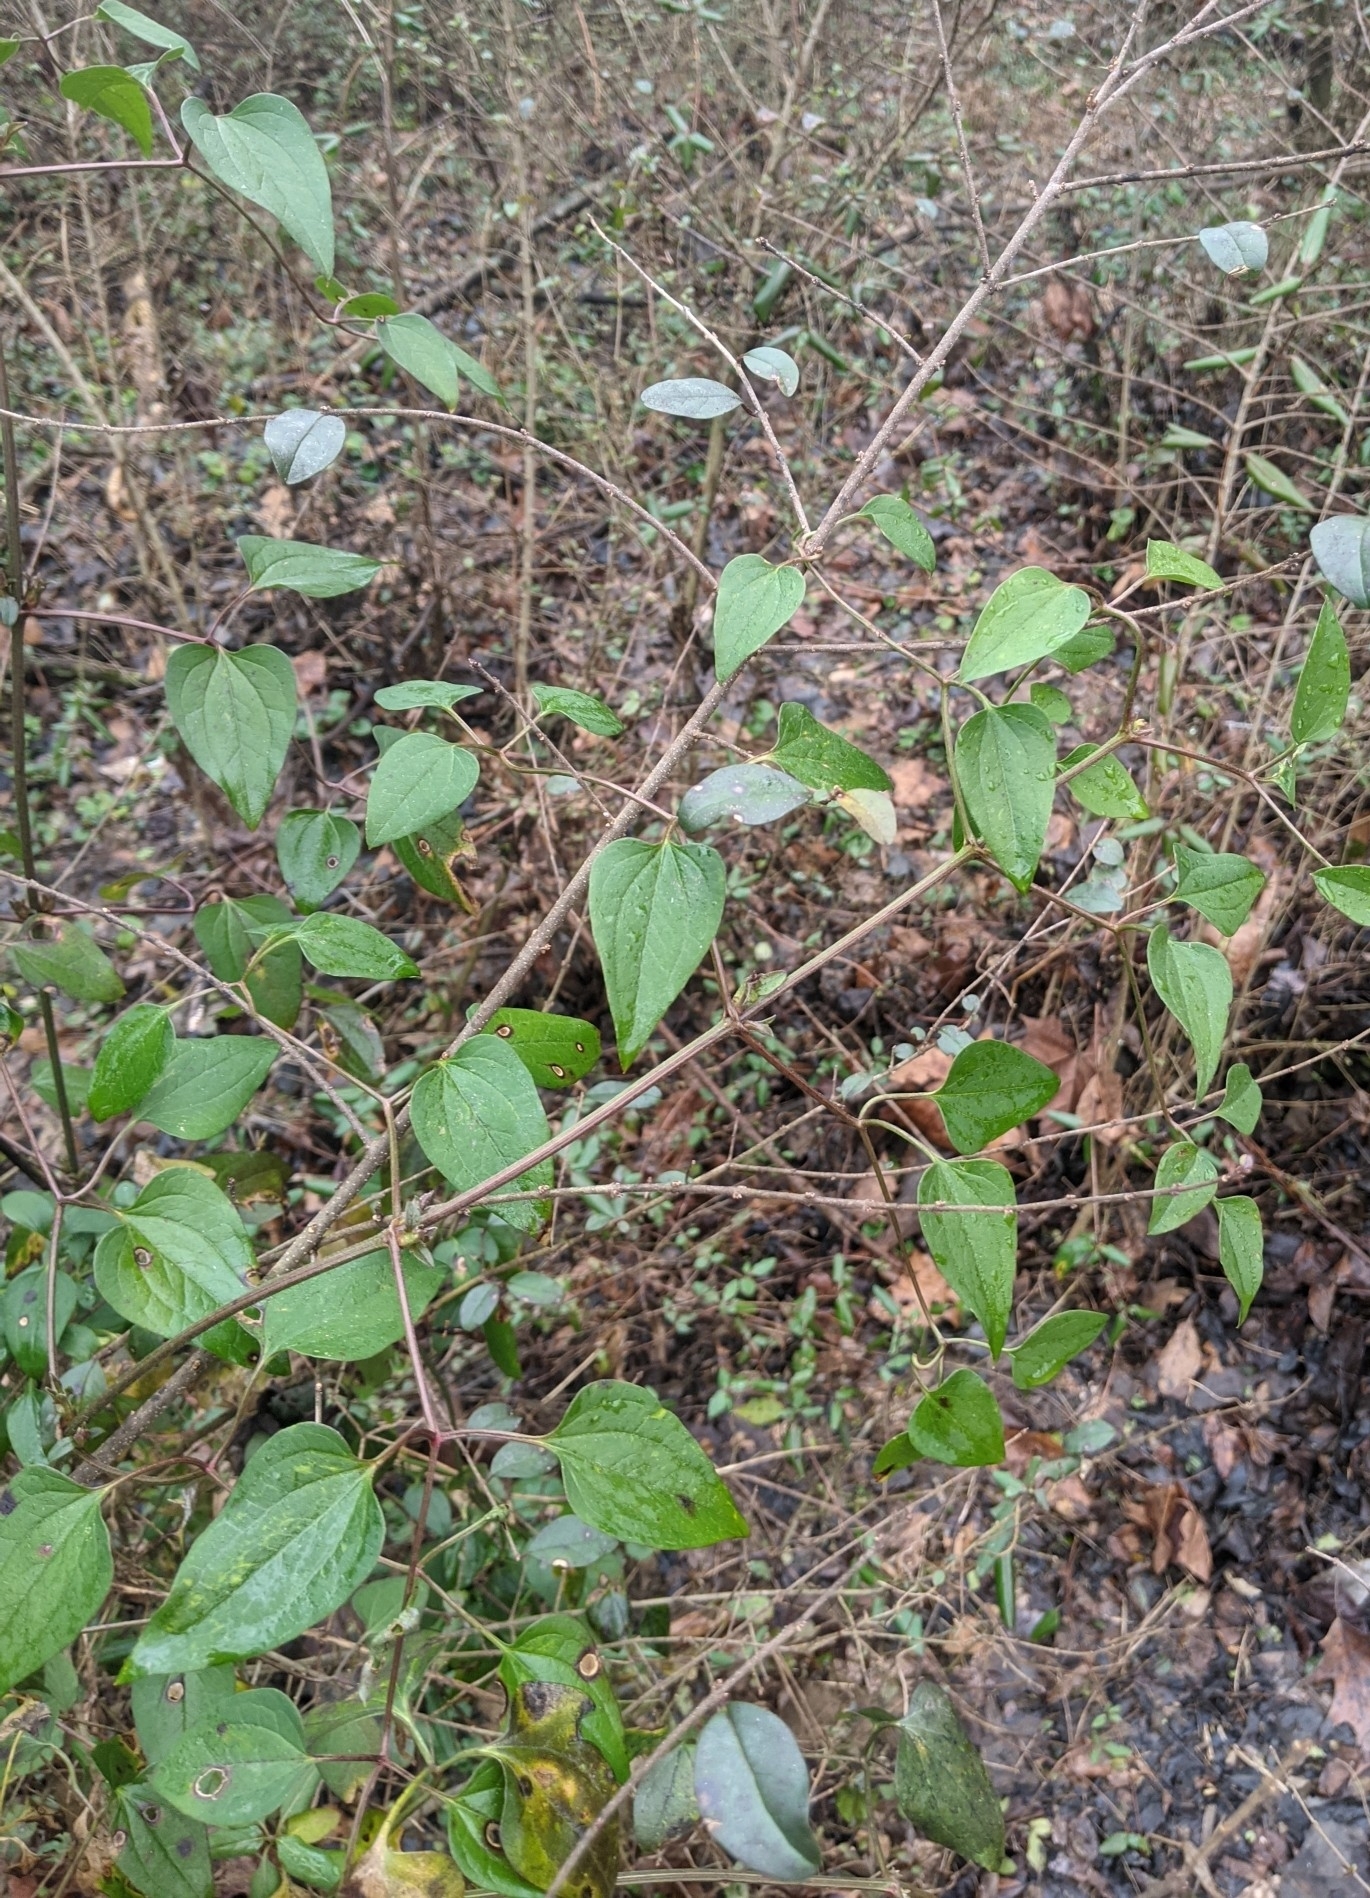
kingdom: Plantae
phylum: Tracheophyta
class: Magnoliopsida
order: Ranunculales
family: Ranunculaceae
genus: Clematis
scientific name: Clematis terniflora
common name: Sweet autumn clematis
